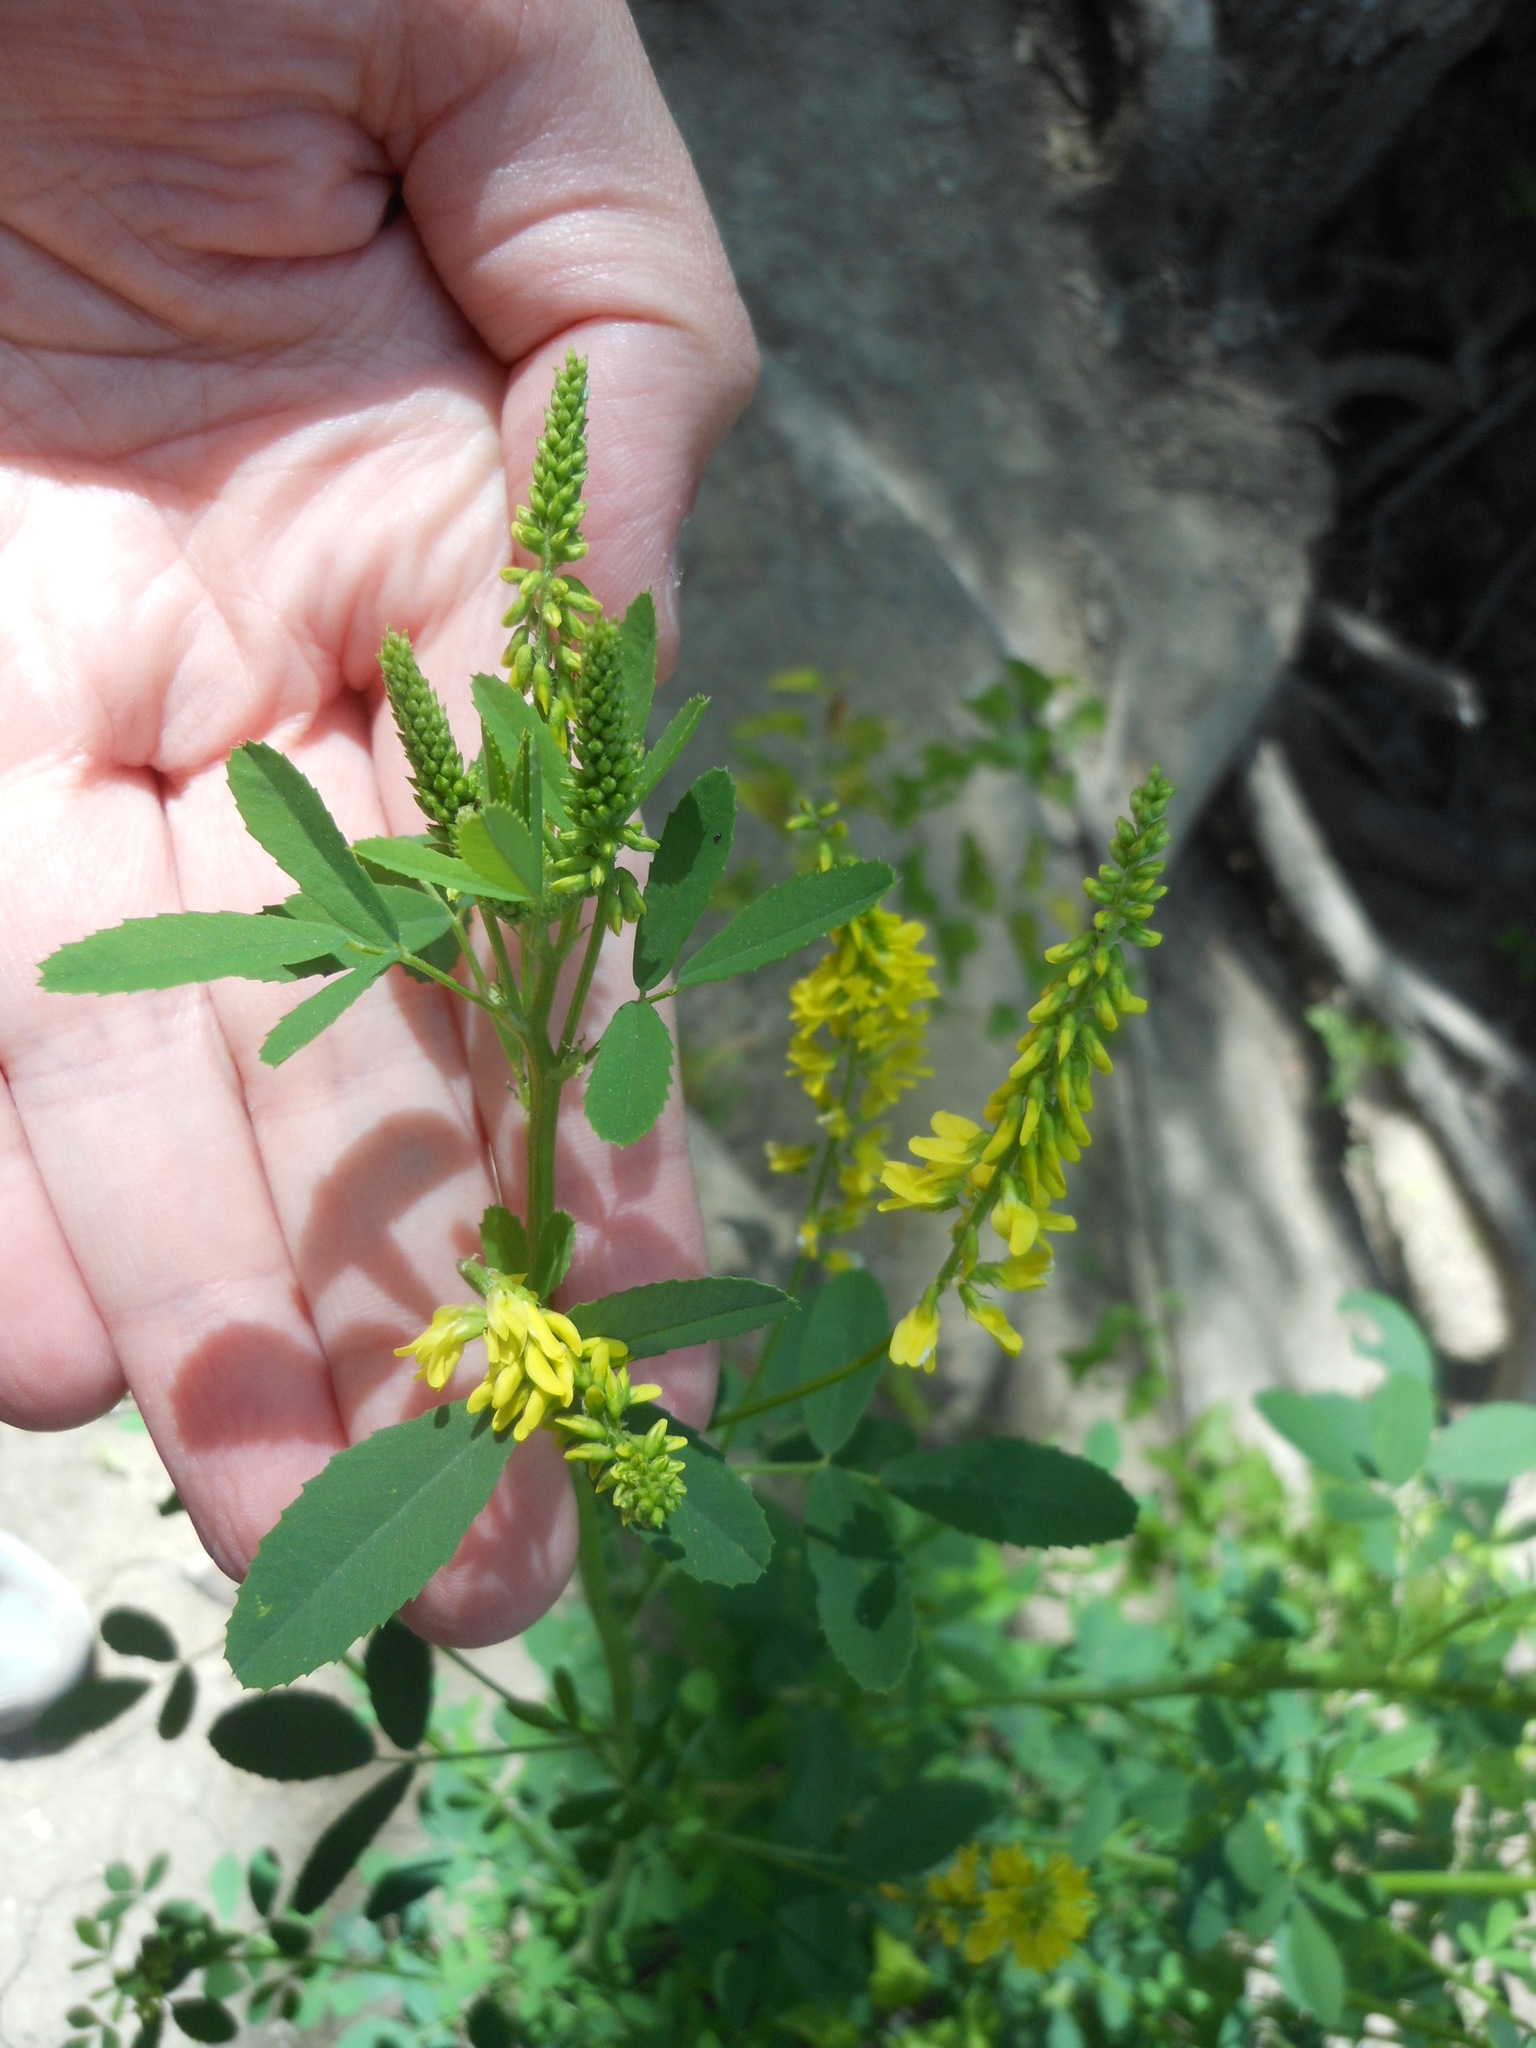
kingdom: Plantae
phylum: Tracheophyta
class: Magnoliopsida
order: Fabales
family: Fabaceae
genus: Melilotus
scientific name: Melilotus officinalis
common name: Sweetclover
